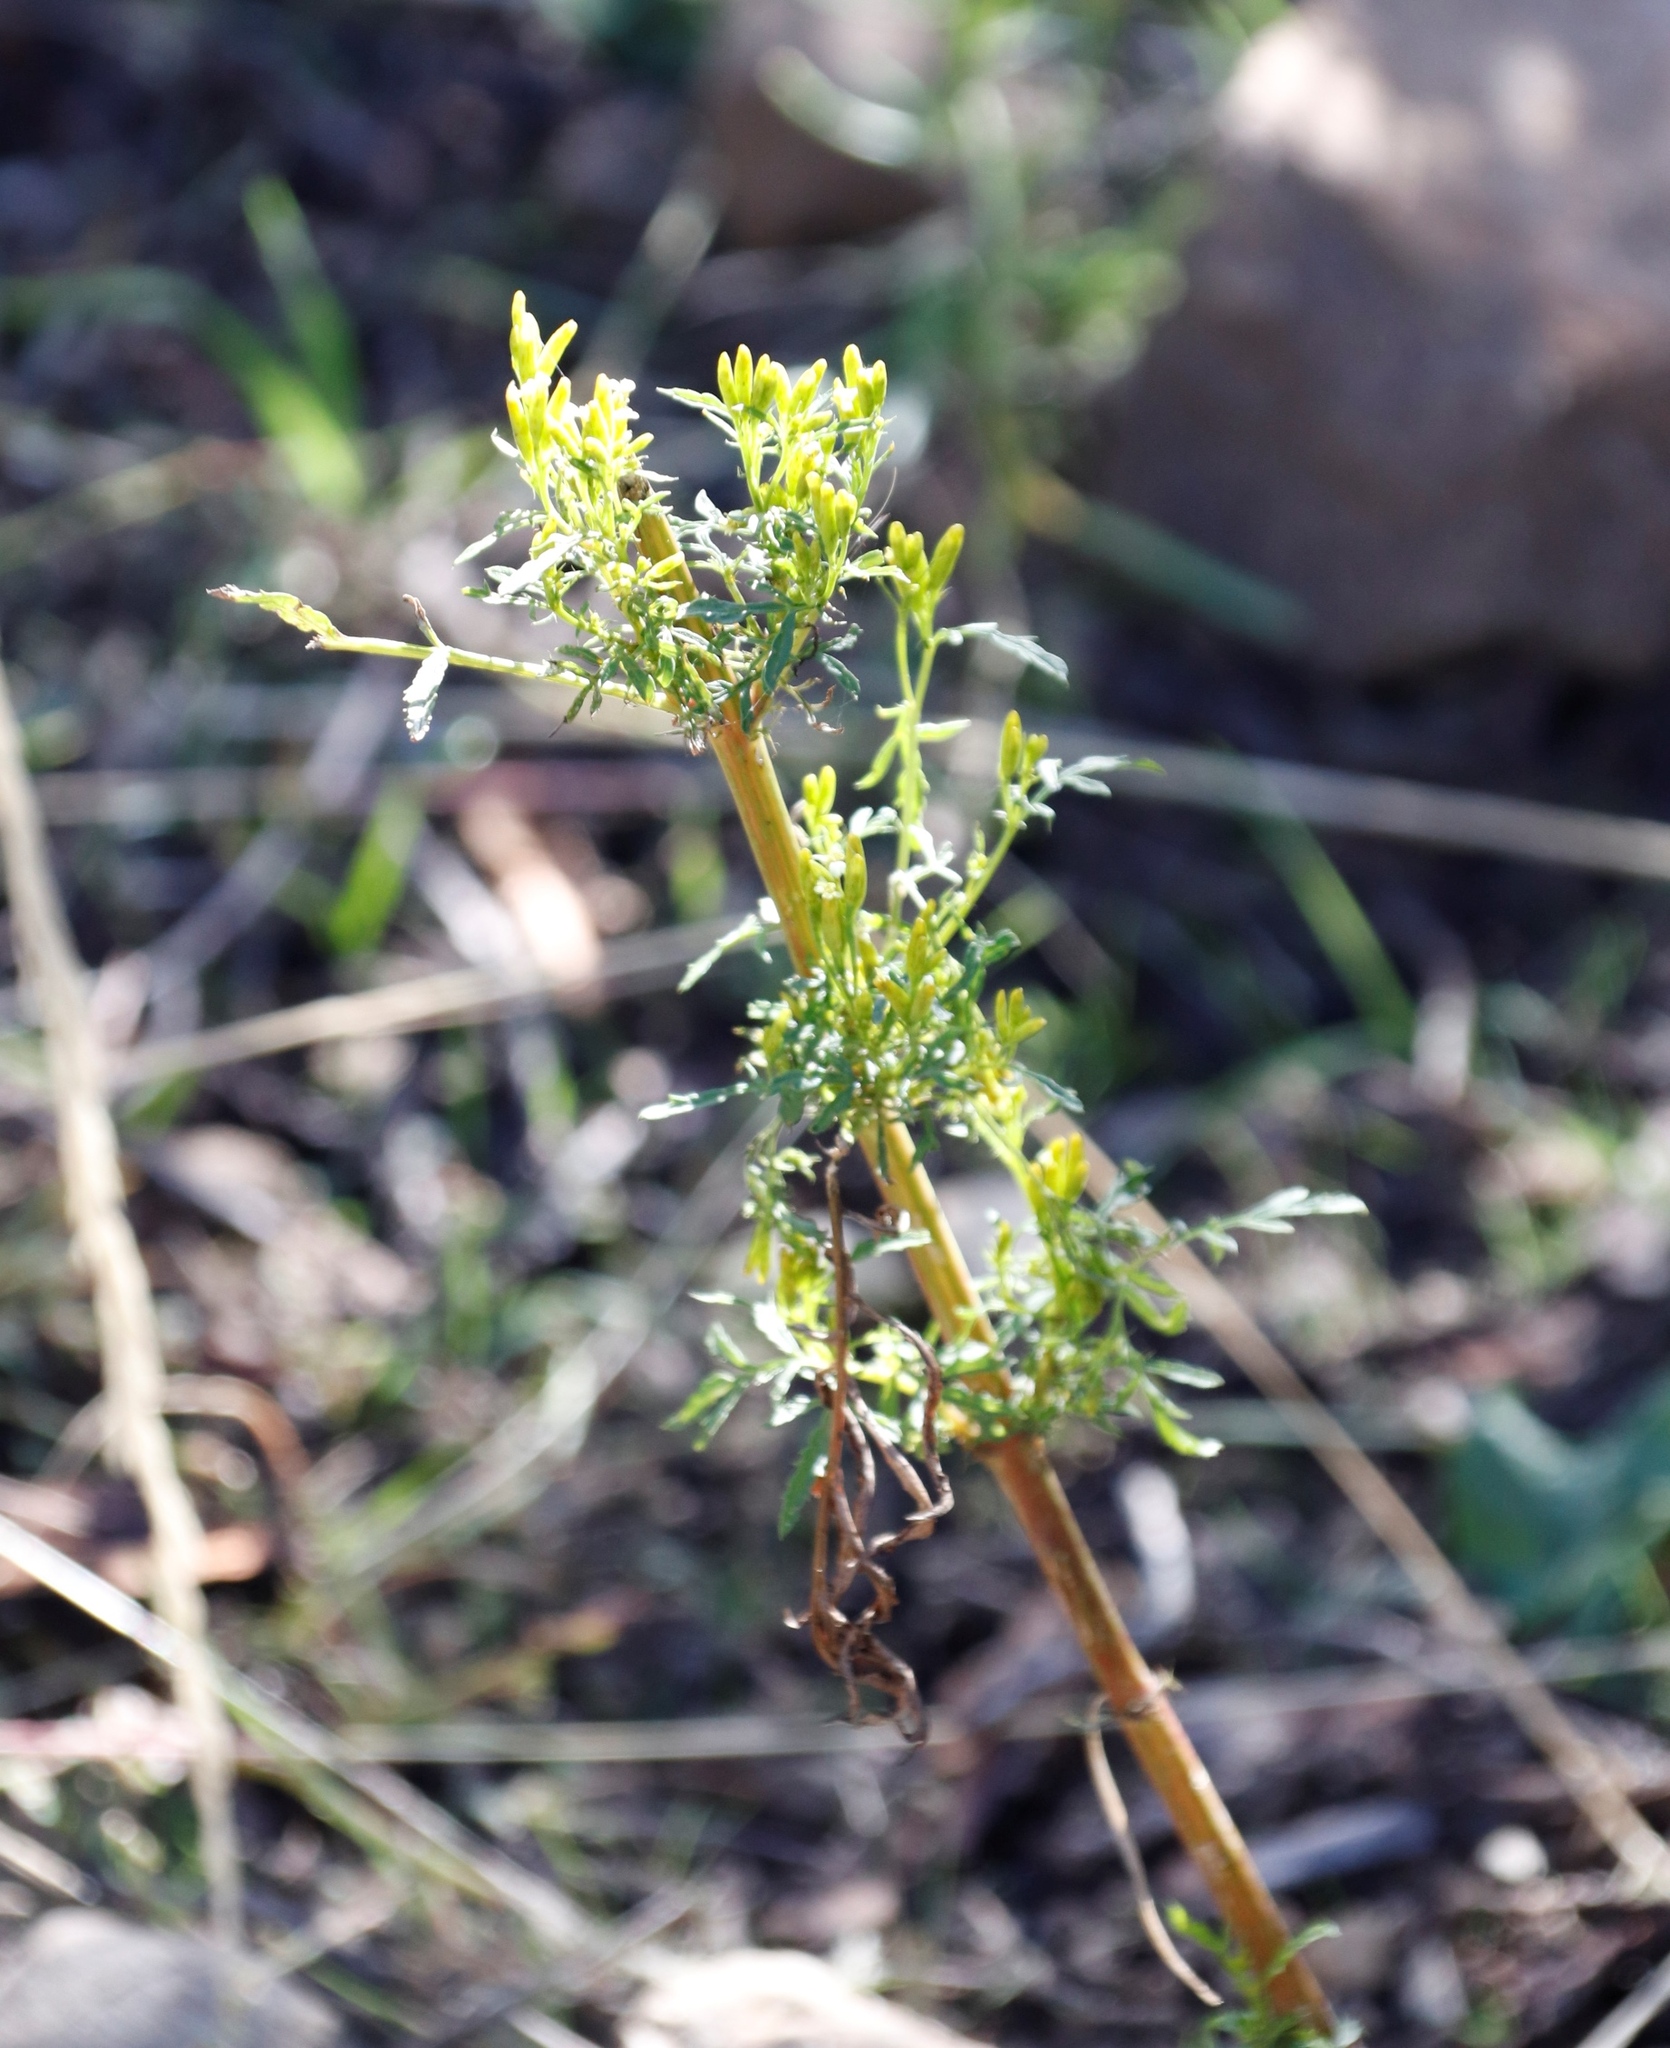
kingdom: Plantae
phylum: Tracheophyta
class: Magnoliopsida
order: Asterales
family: Asteraceae
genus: Tagetes
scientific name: Tagetes minuta
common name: Muster john henry
